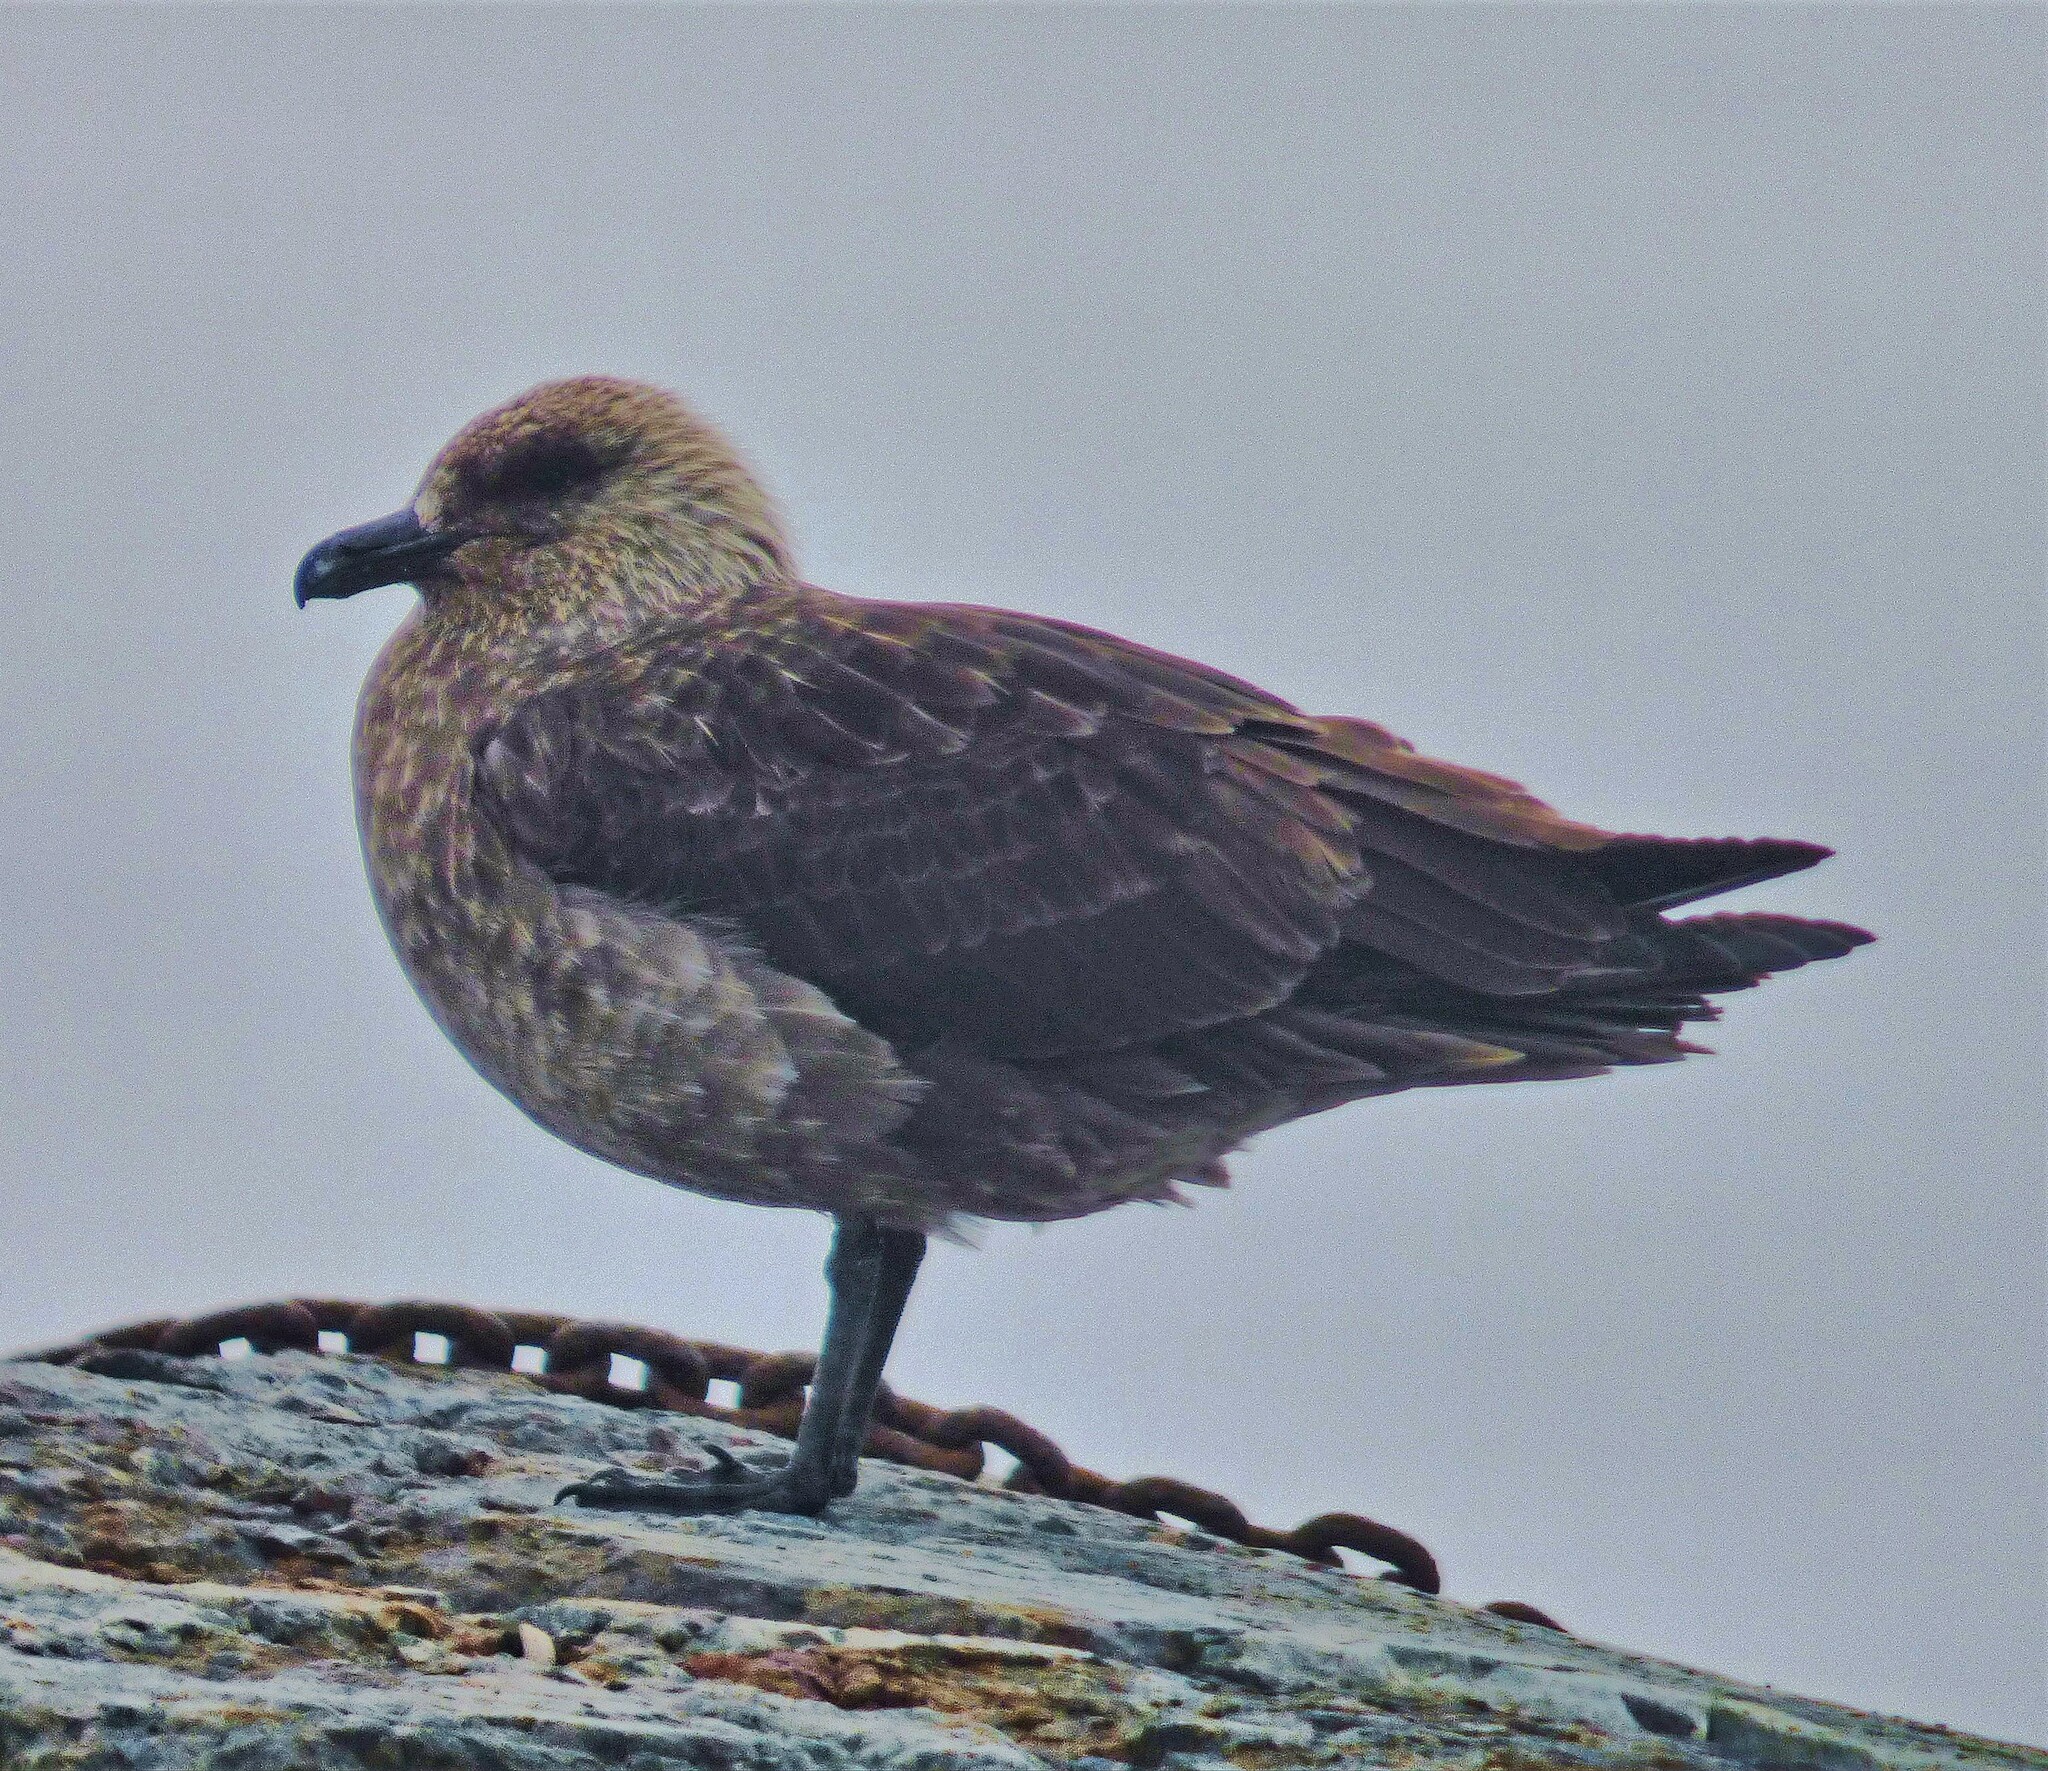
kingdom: Animalia
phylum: Chordata
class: Aves
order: Charadriiformes
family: Stercorariidae
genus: Stercorarius
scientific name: Stercorarius maccormicki
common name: South polar skua
